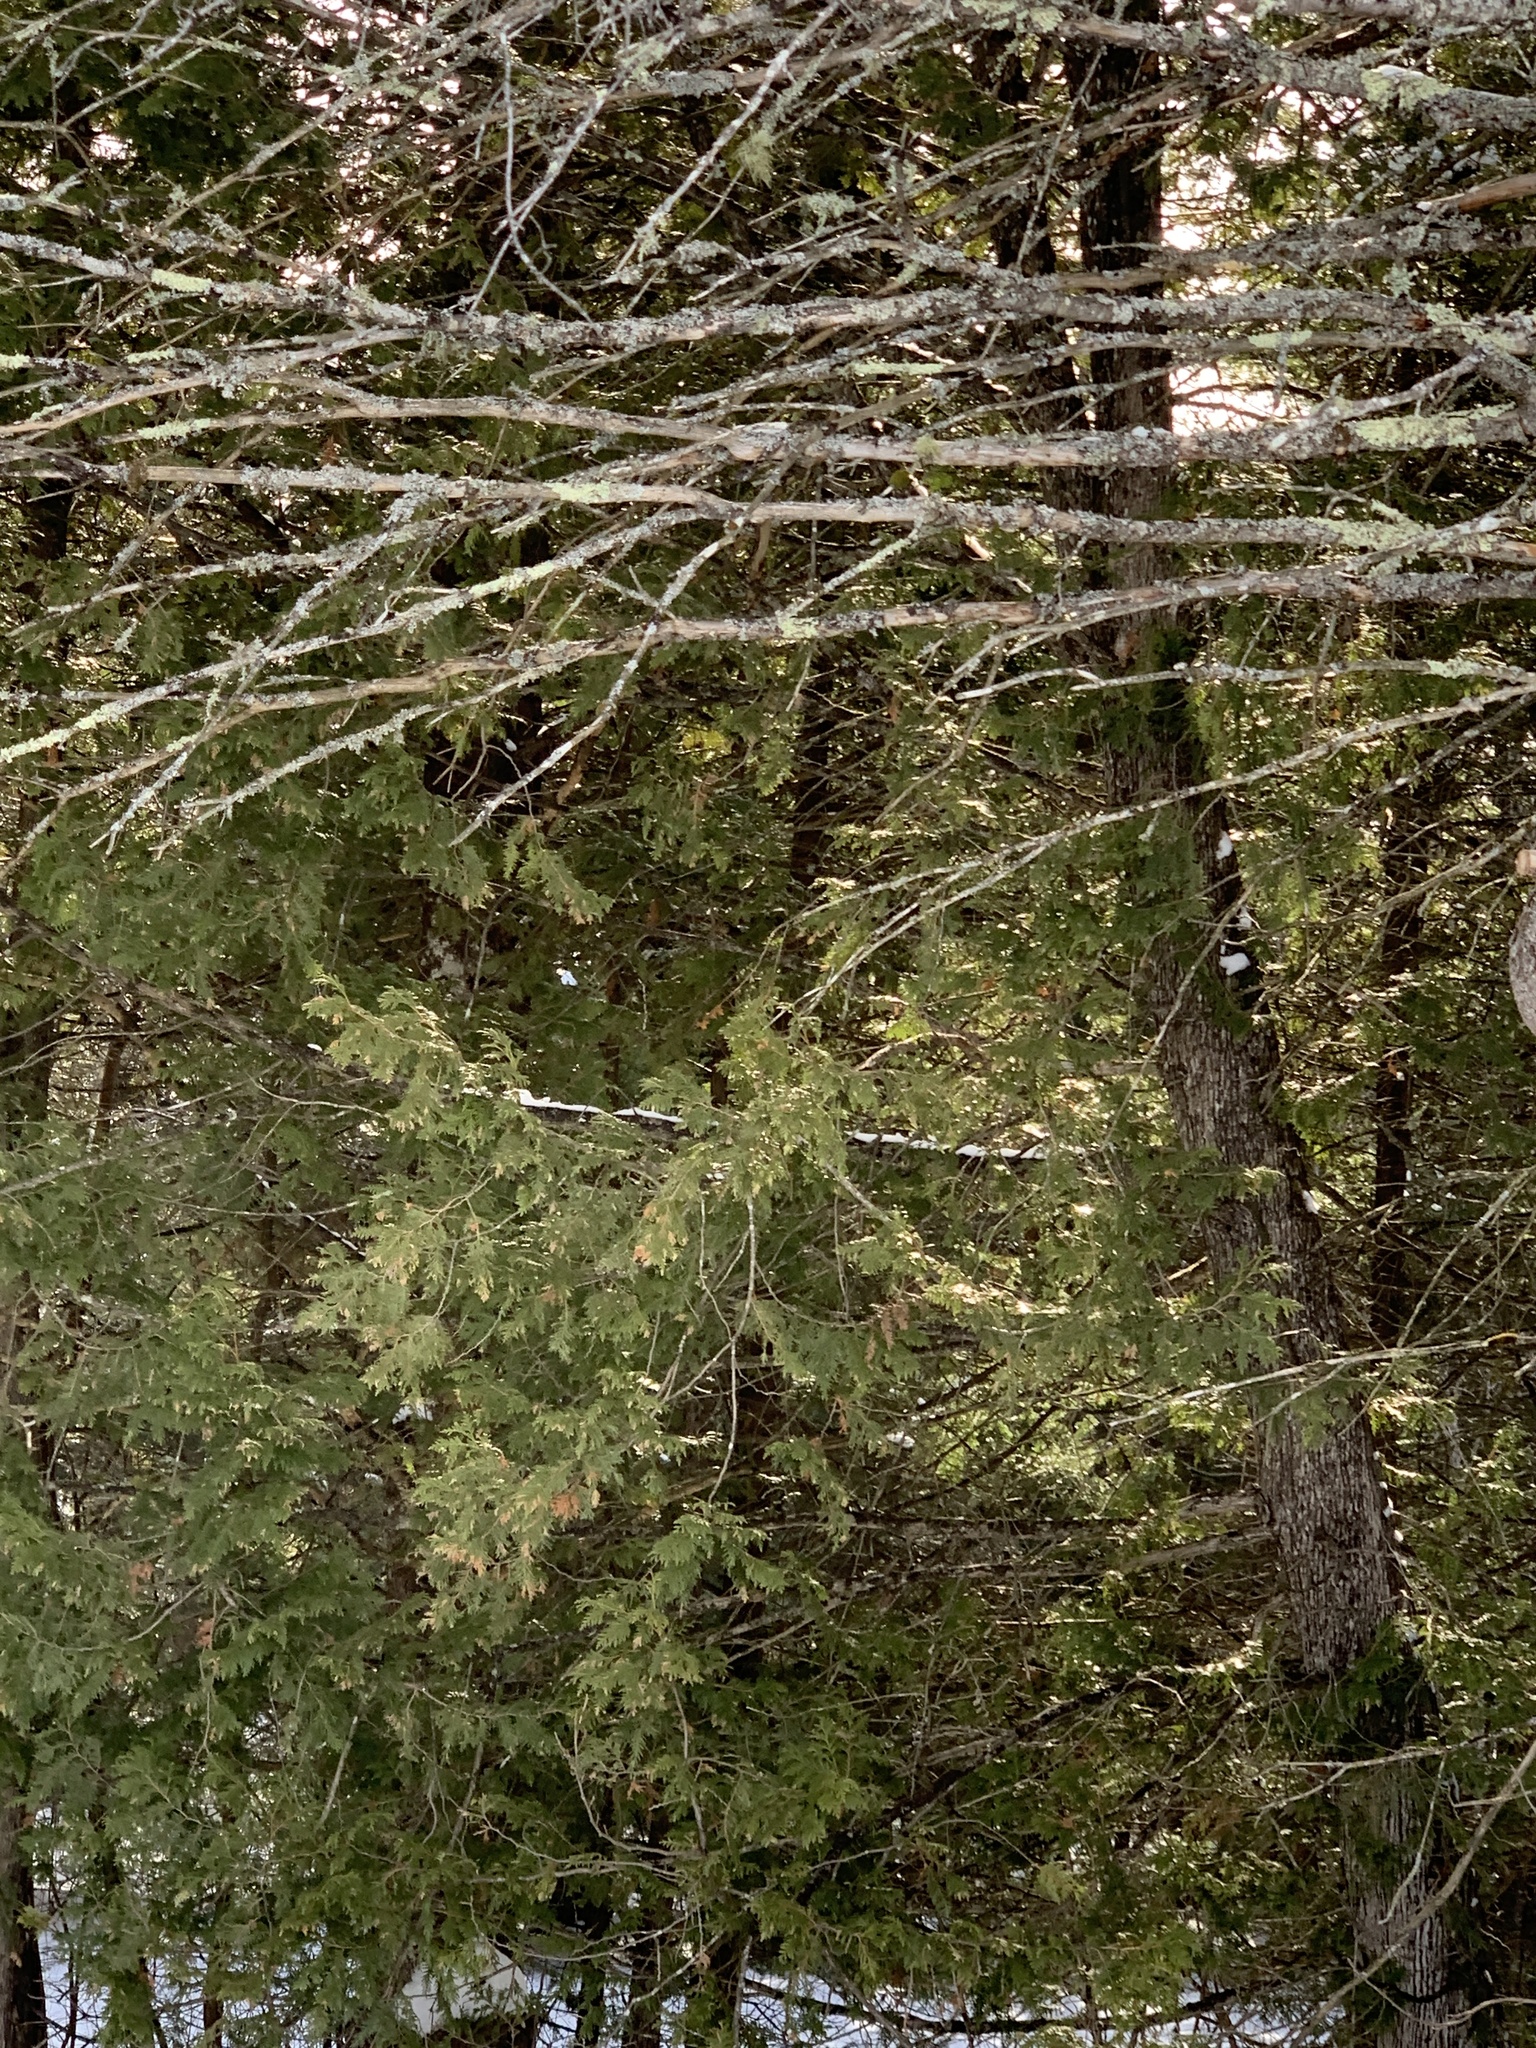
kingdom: Plantae
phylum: Tracheophyta
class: Pinopsida
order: Pinales
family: Cupressaceae
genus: Thuja
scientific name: Thuja occidentalis
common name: Northern white-cedar
